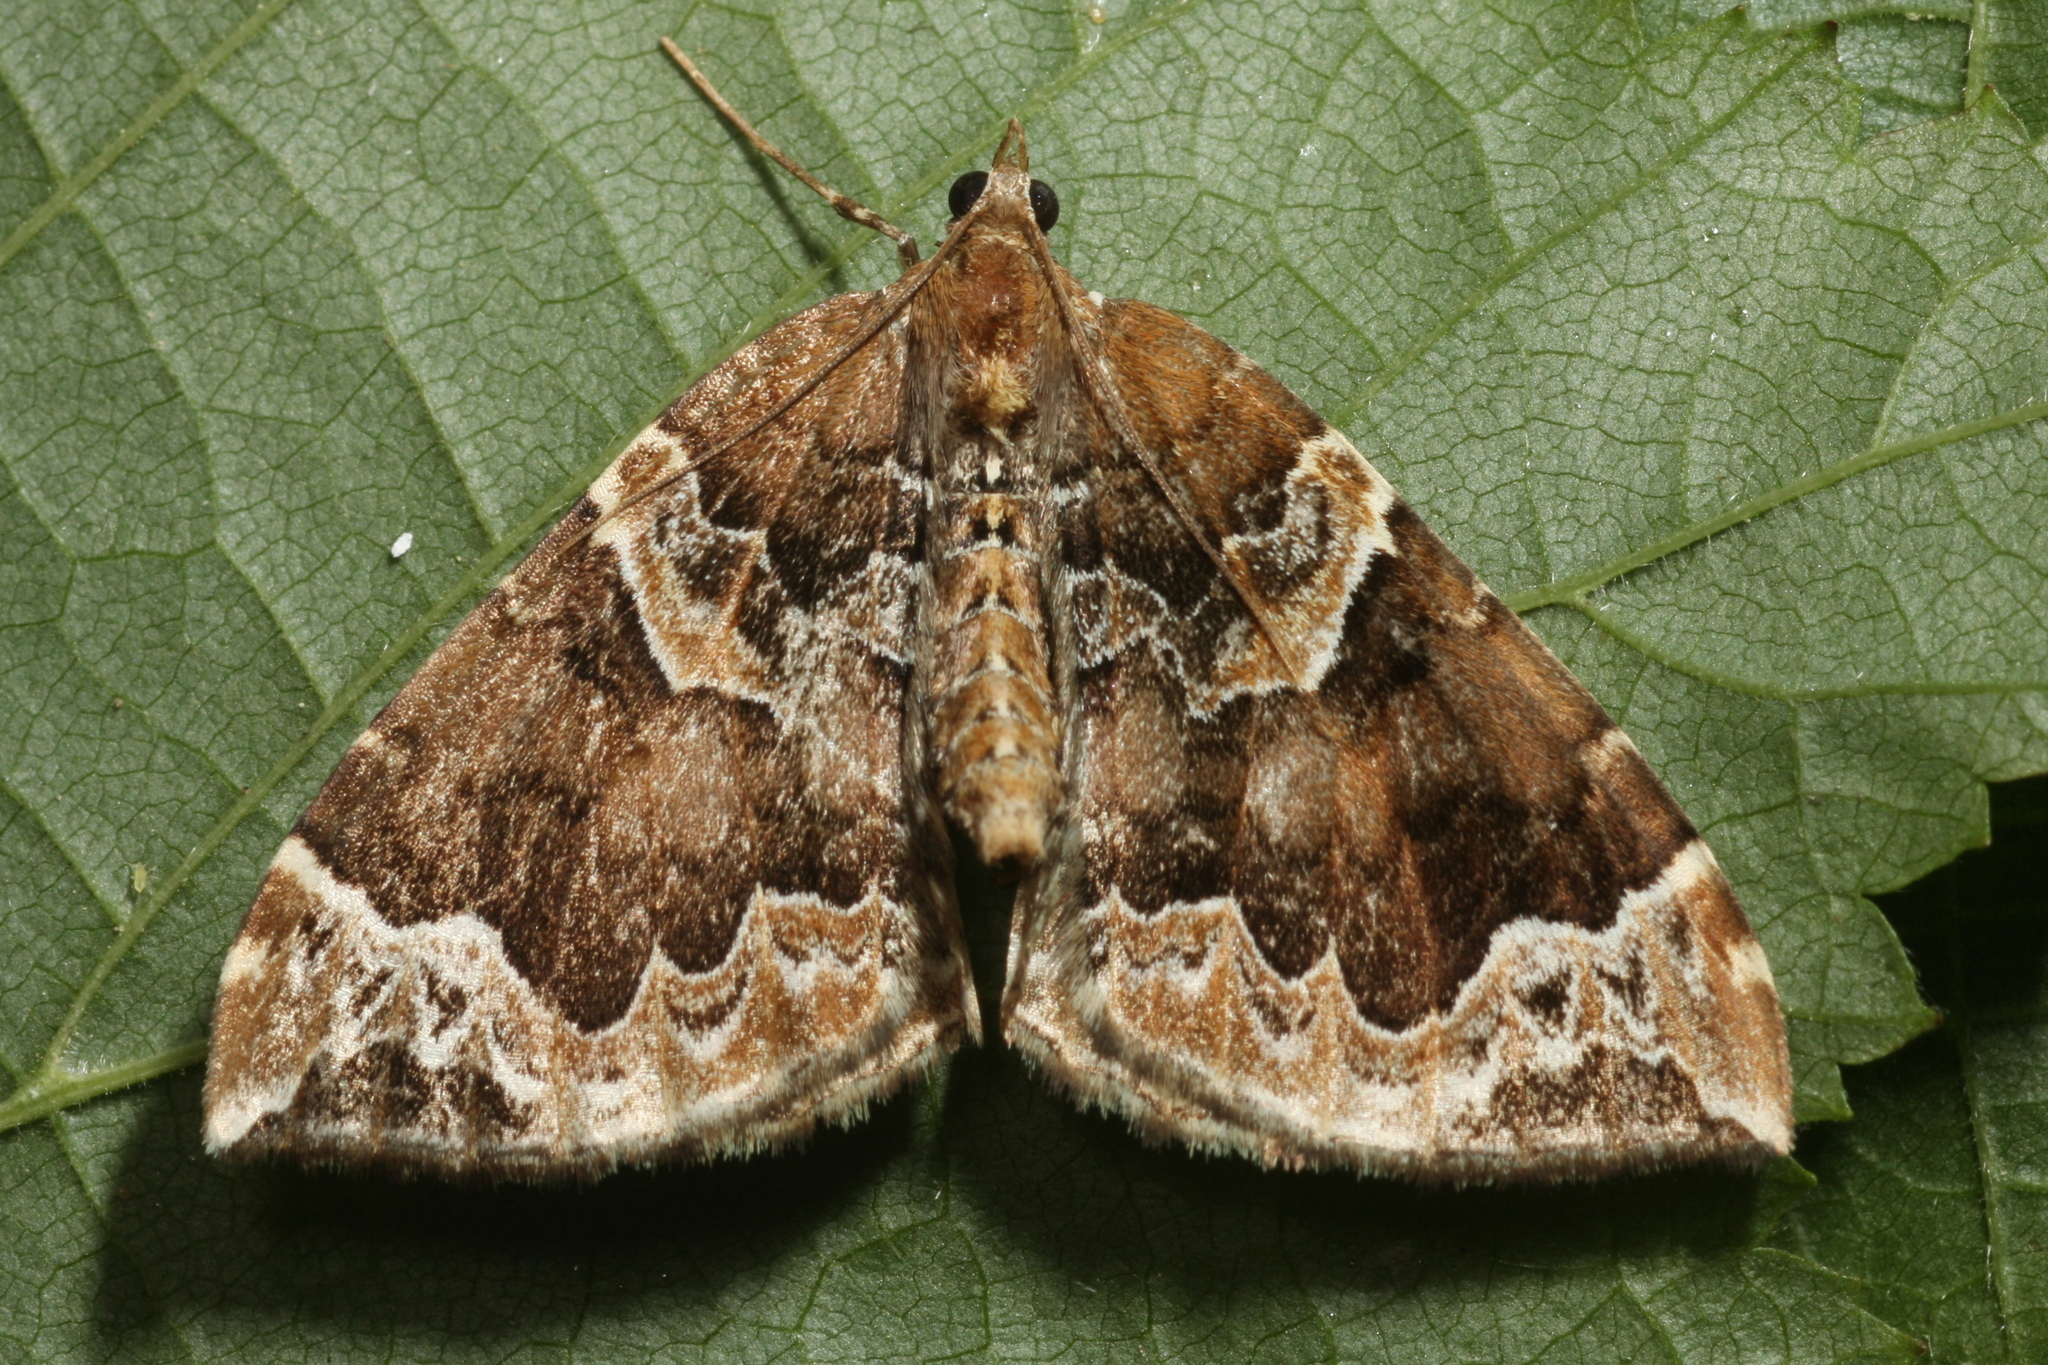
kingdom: Animalia
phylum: Arthropoda
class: Insecta
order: Lepidoptera
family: Geometridae
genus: Eulithis
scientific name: Eulithis prunata
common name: Phoenix
